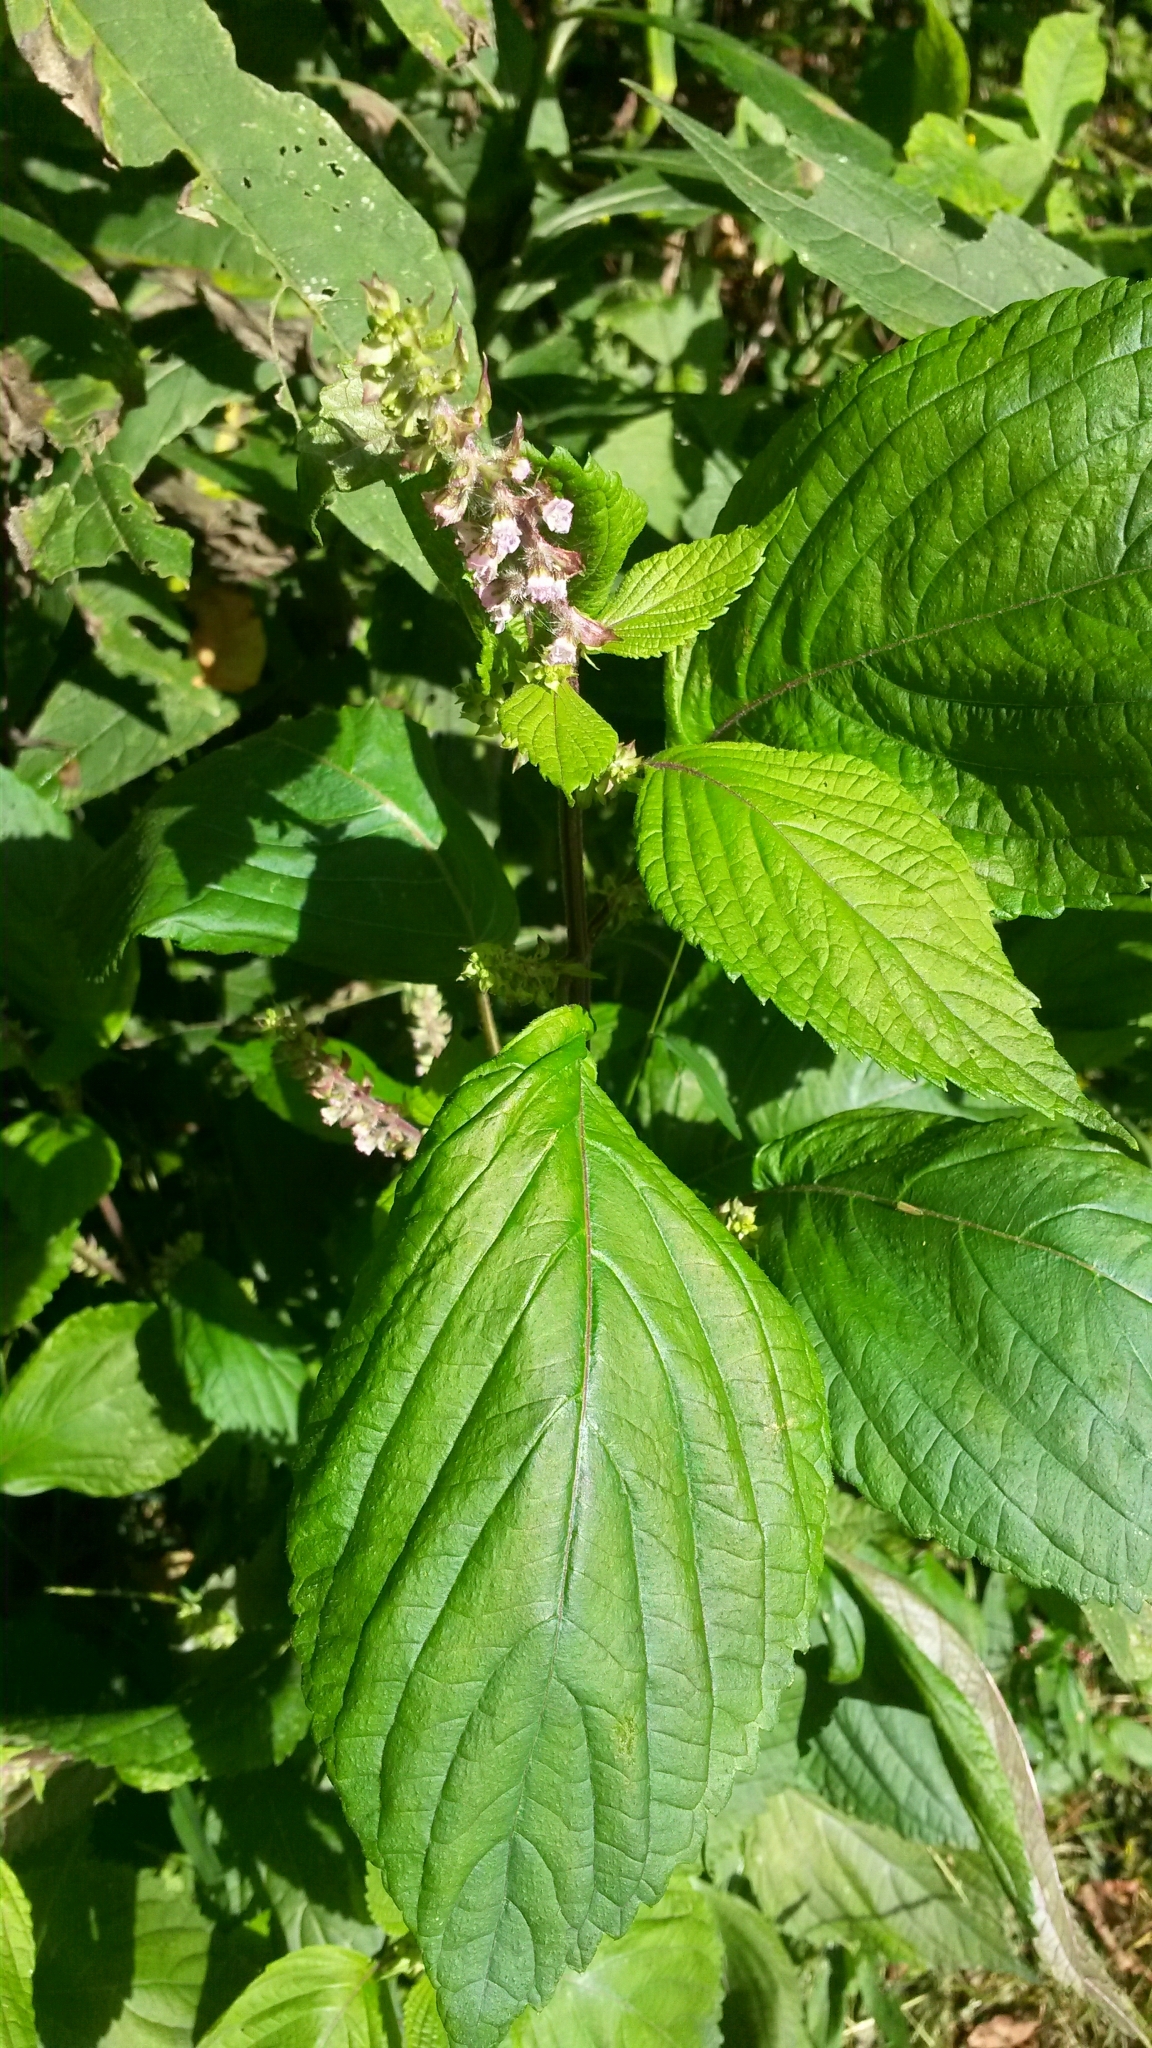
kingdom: Plantae
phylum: Tracheophyta
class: Magnoliopsida
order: Lamiales
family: Lamiaceae
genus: Perilla
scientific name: Perilla frutescens
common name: Perilla
